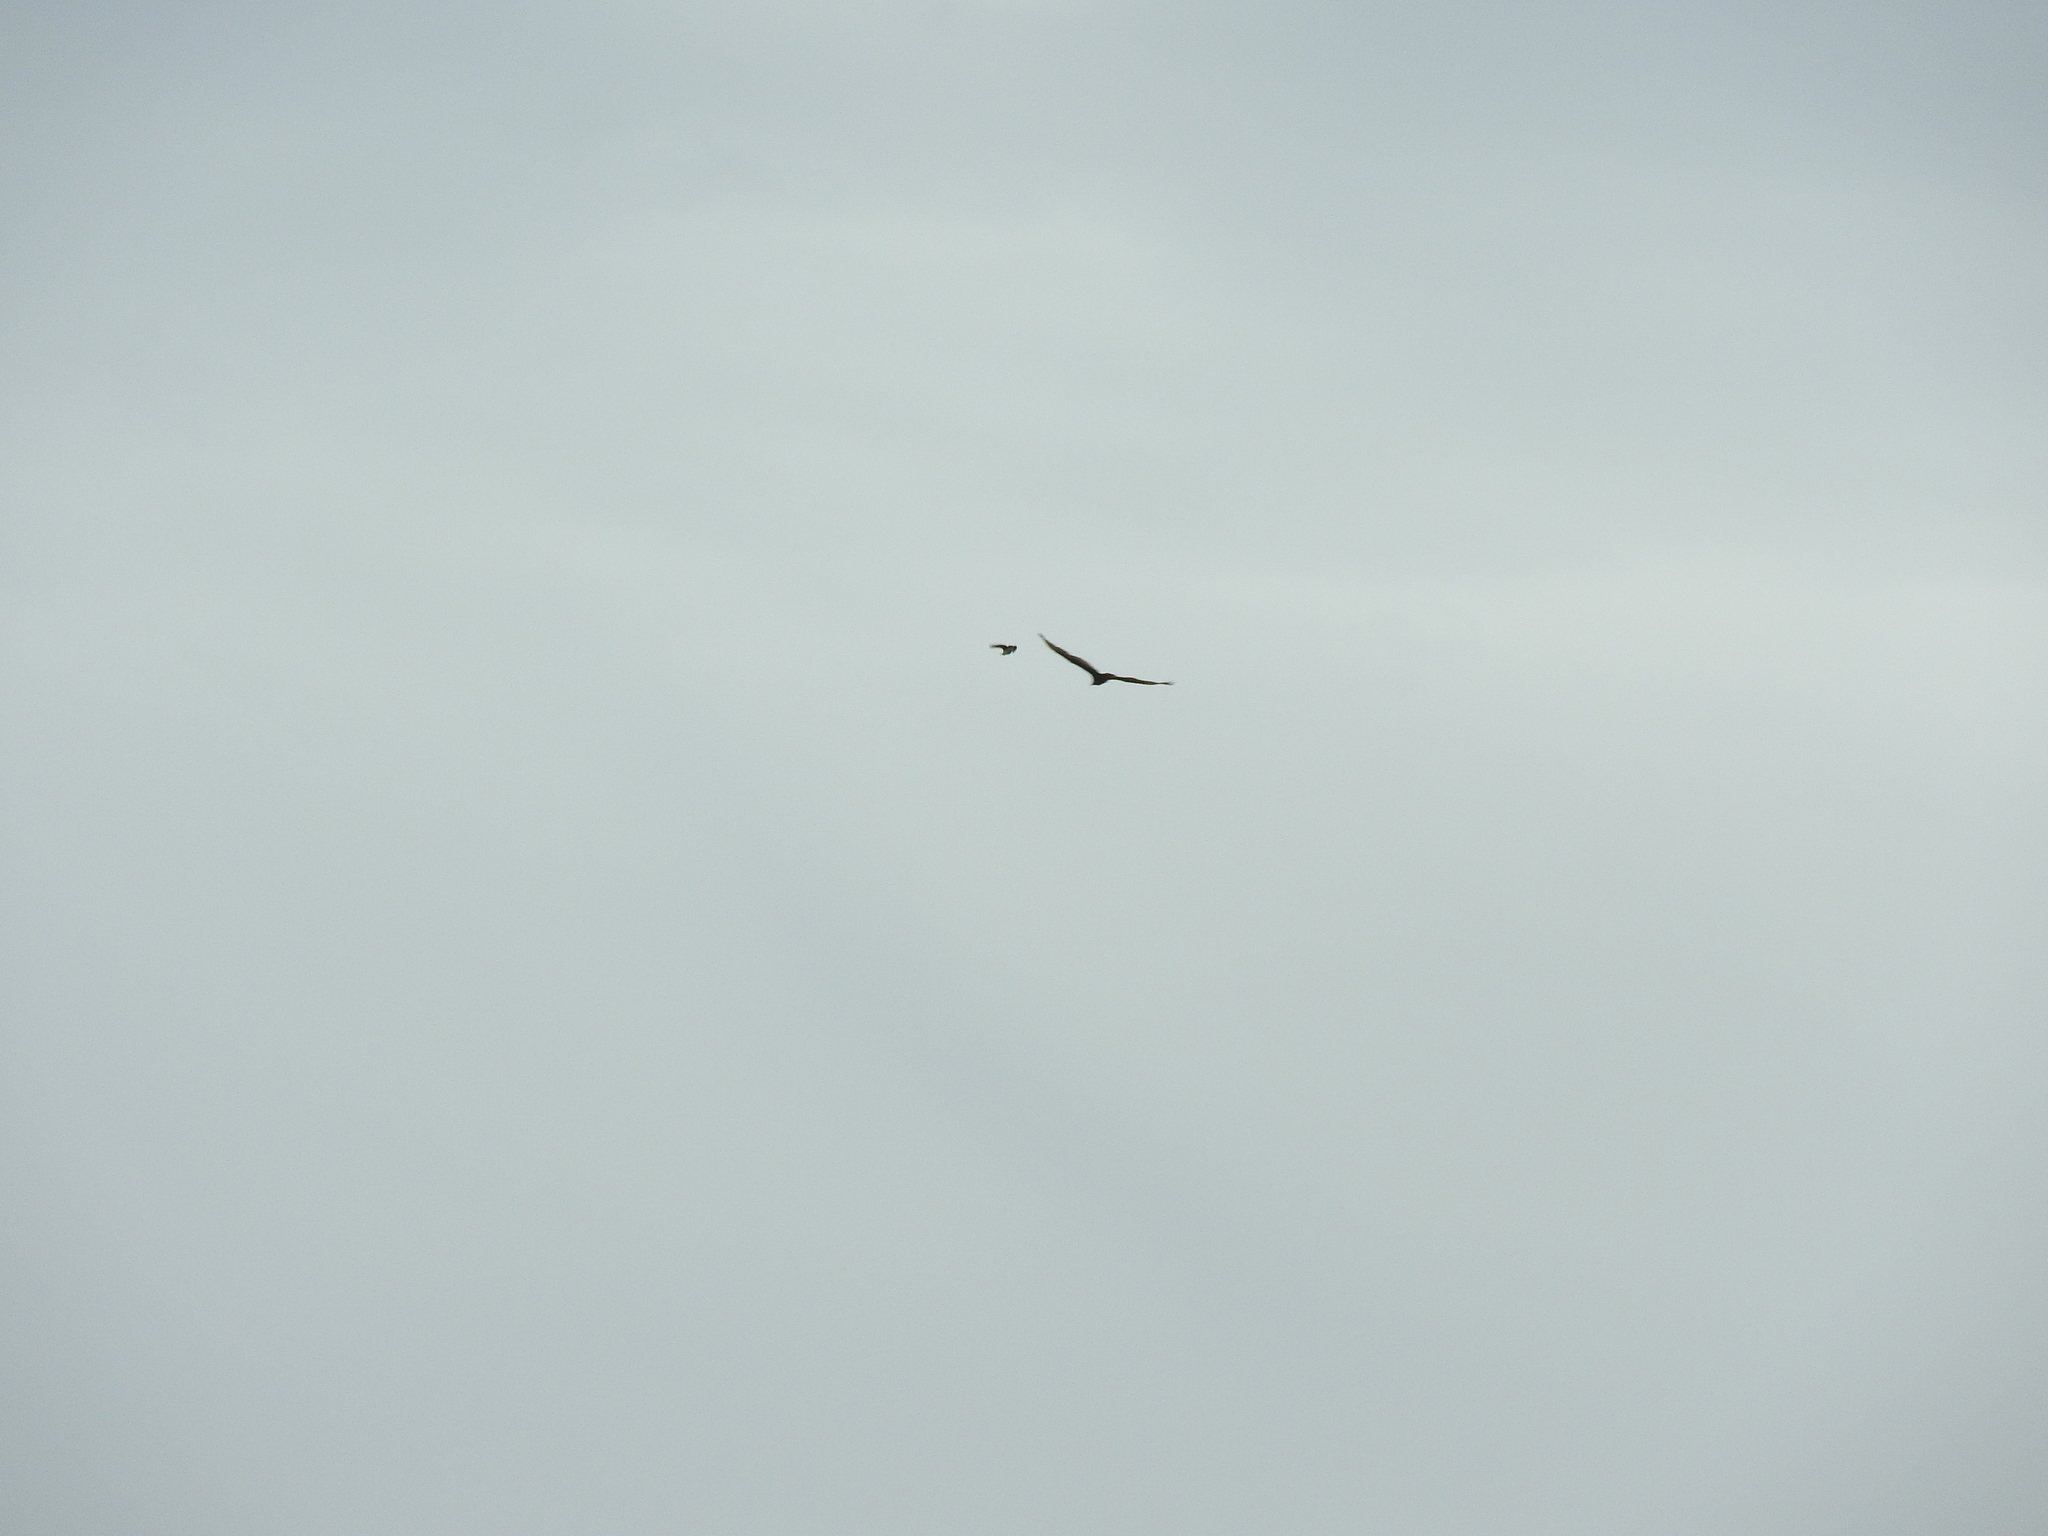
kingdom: Animalia
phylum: Chordata
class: Aves
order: Accipitriformes
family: Cathartidae
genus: Cathartes
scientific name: Cathartes aura
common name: Turkey vulture
